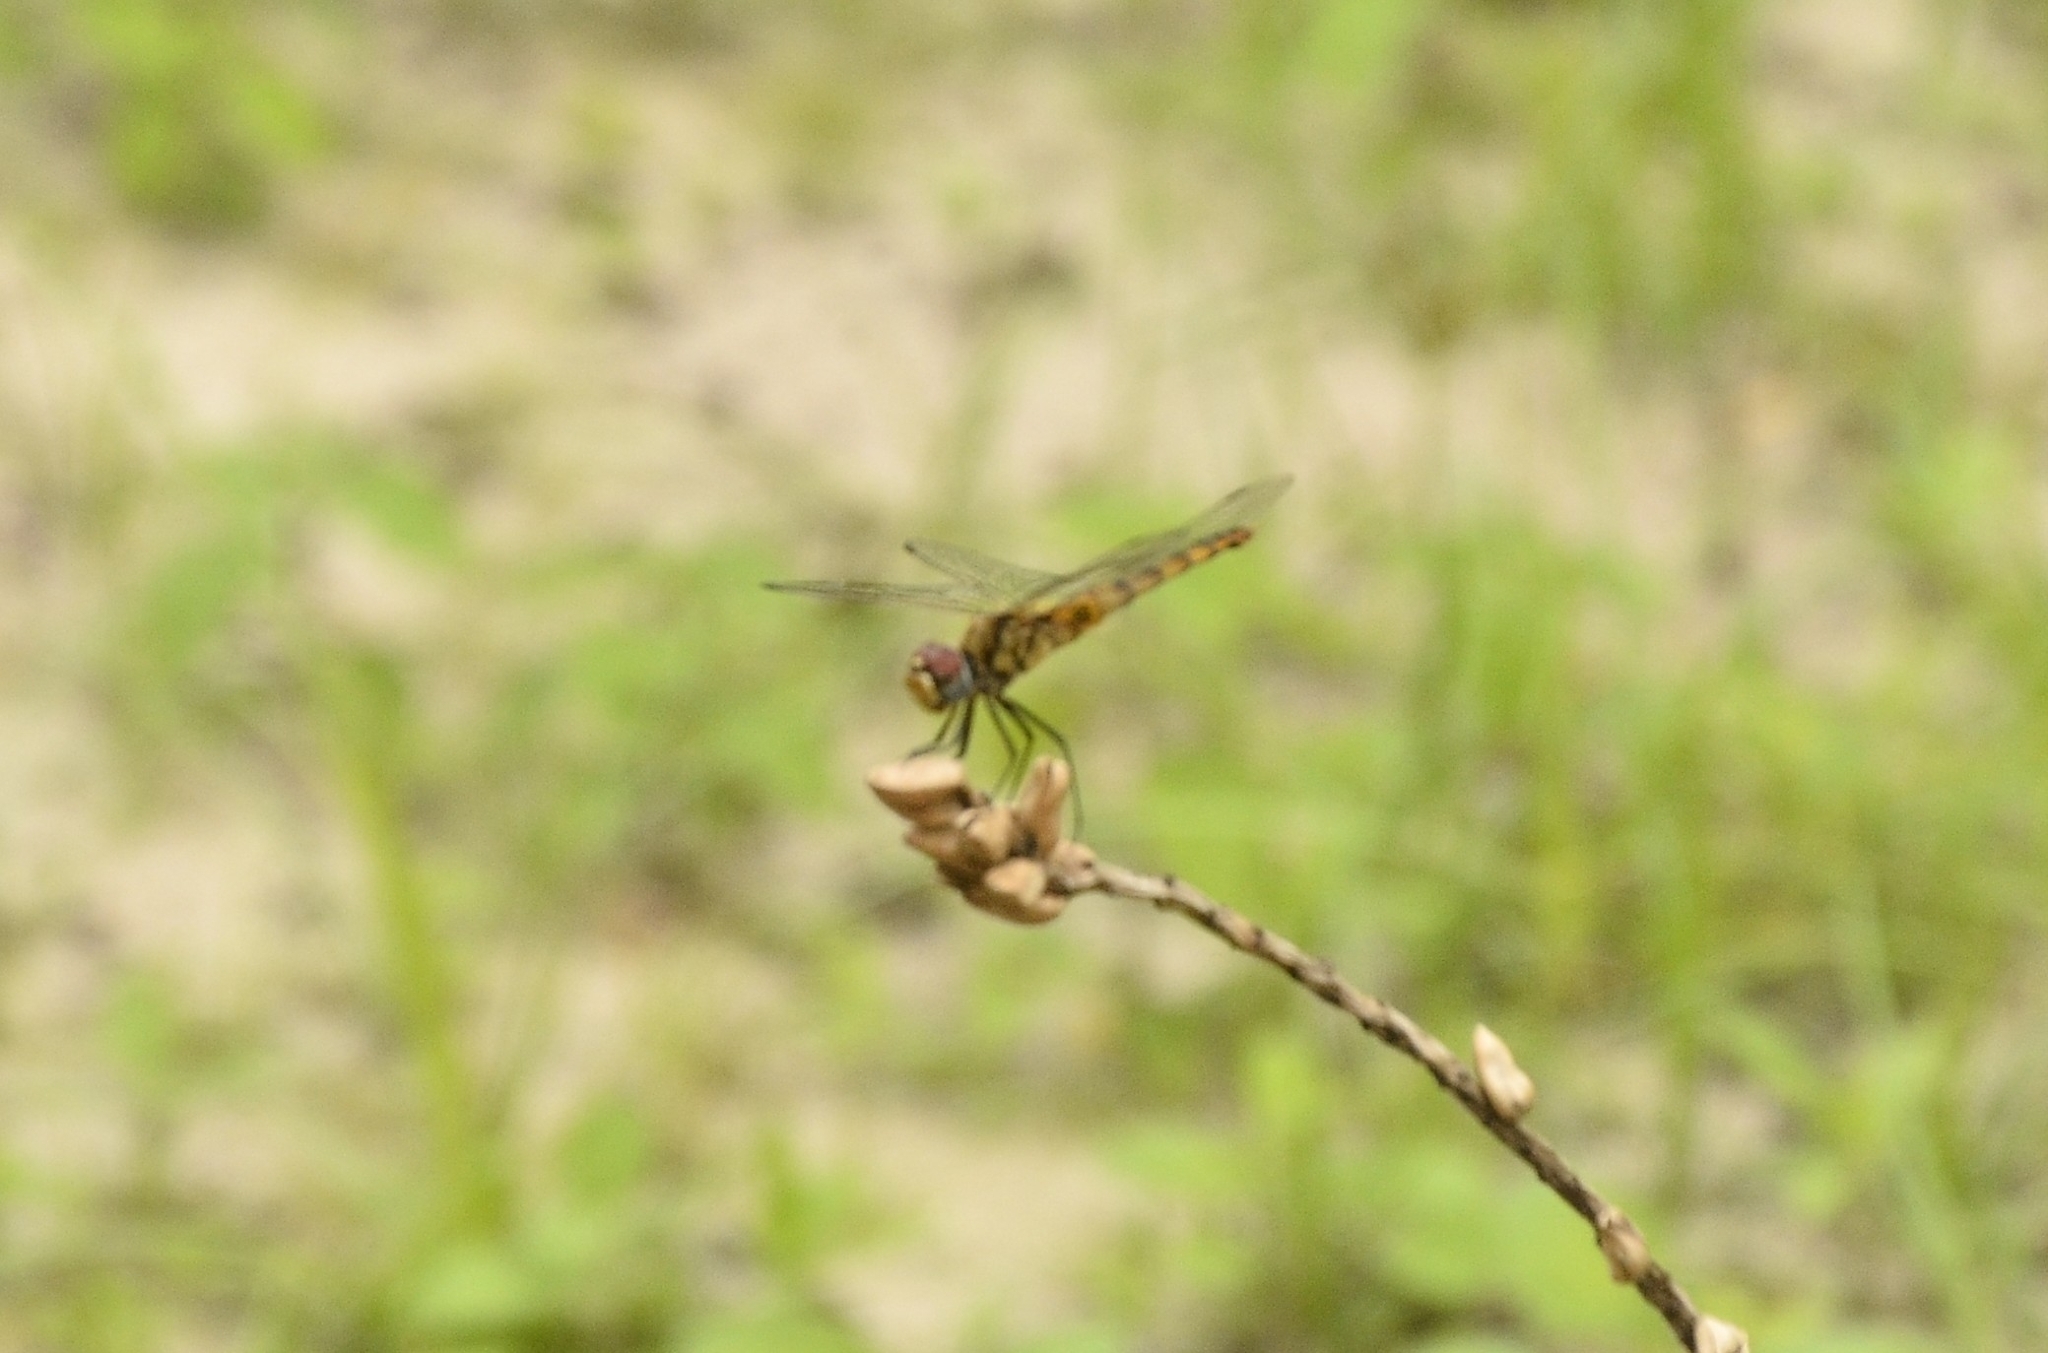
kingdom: Animalia
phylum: Arthropoda
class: Insecta
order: Odonata
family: Libellulidae
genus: Urothemis
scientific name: Urothemis signata
